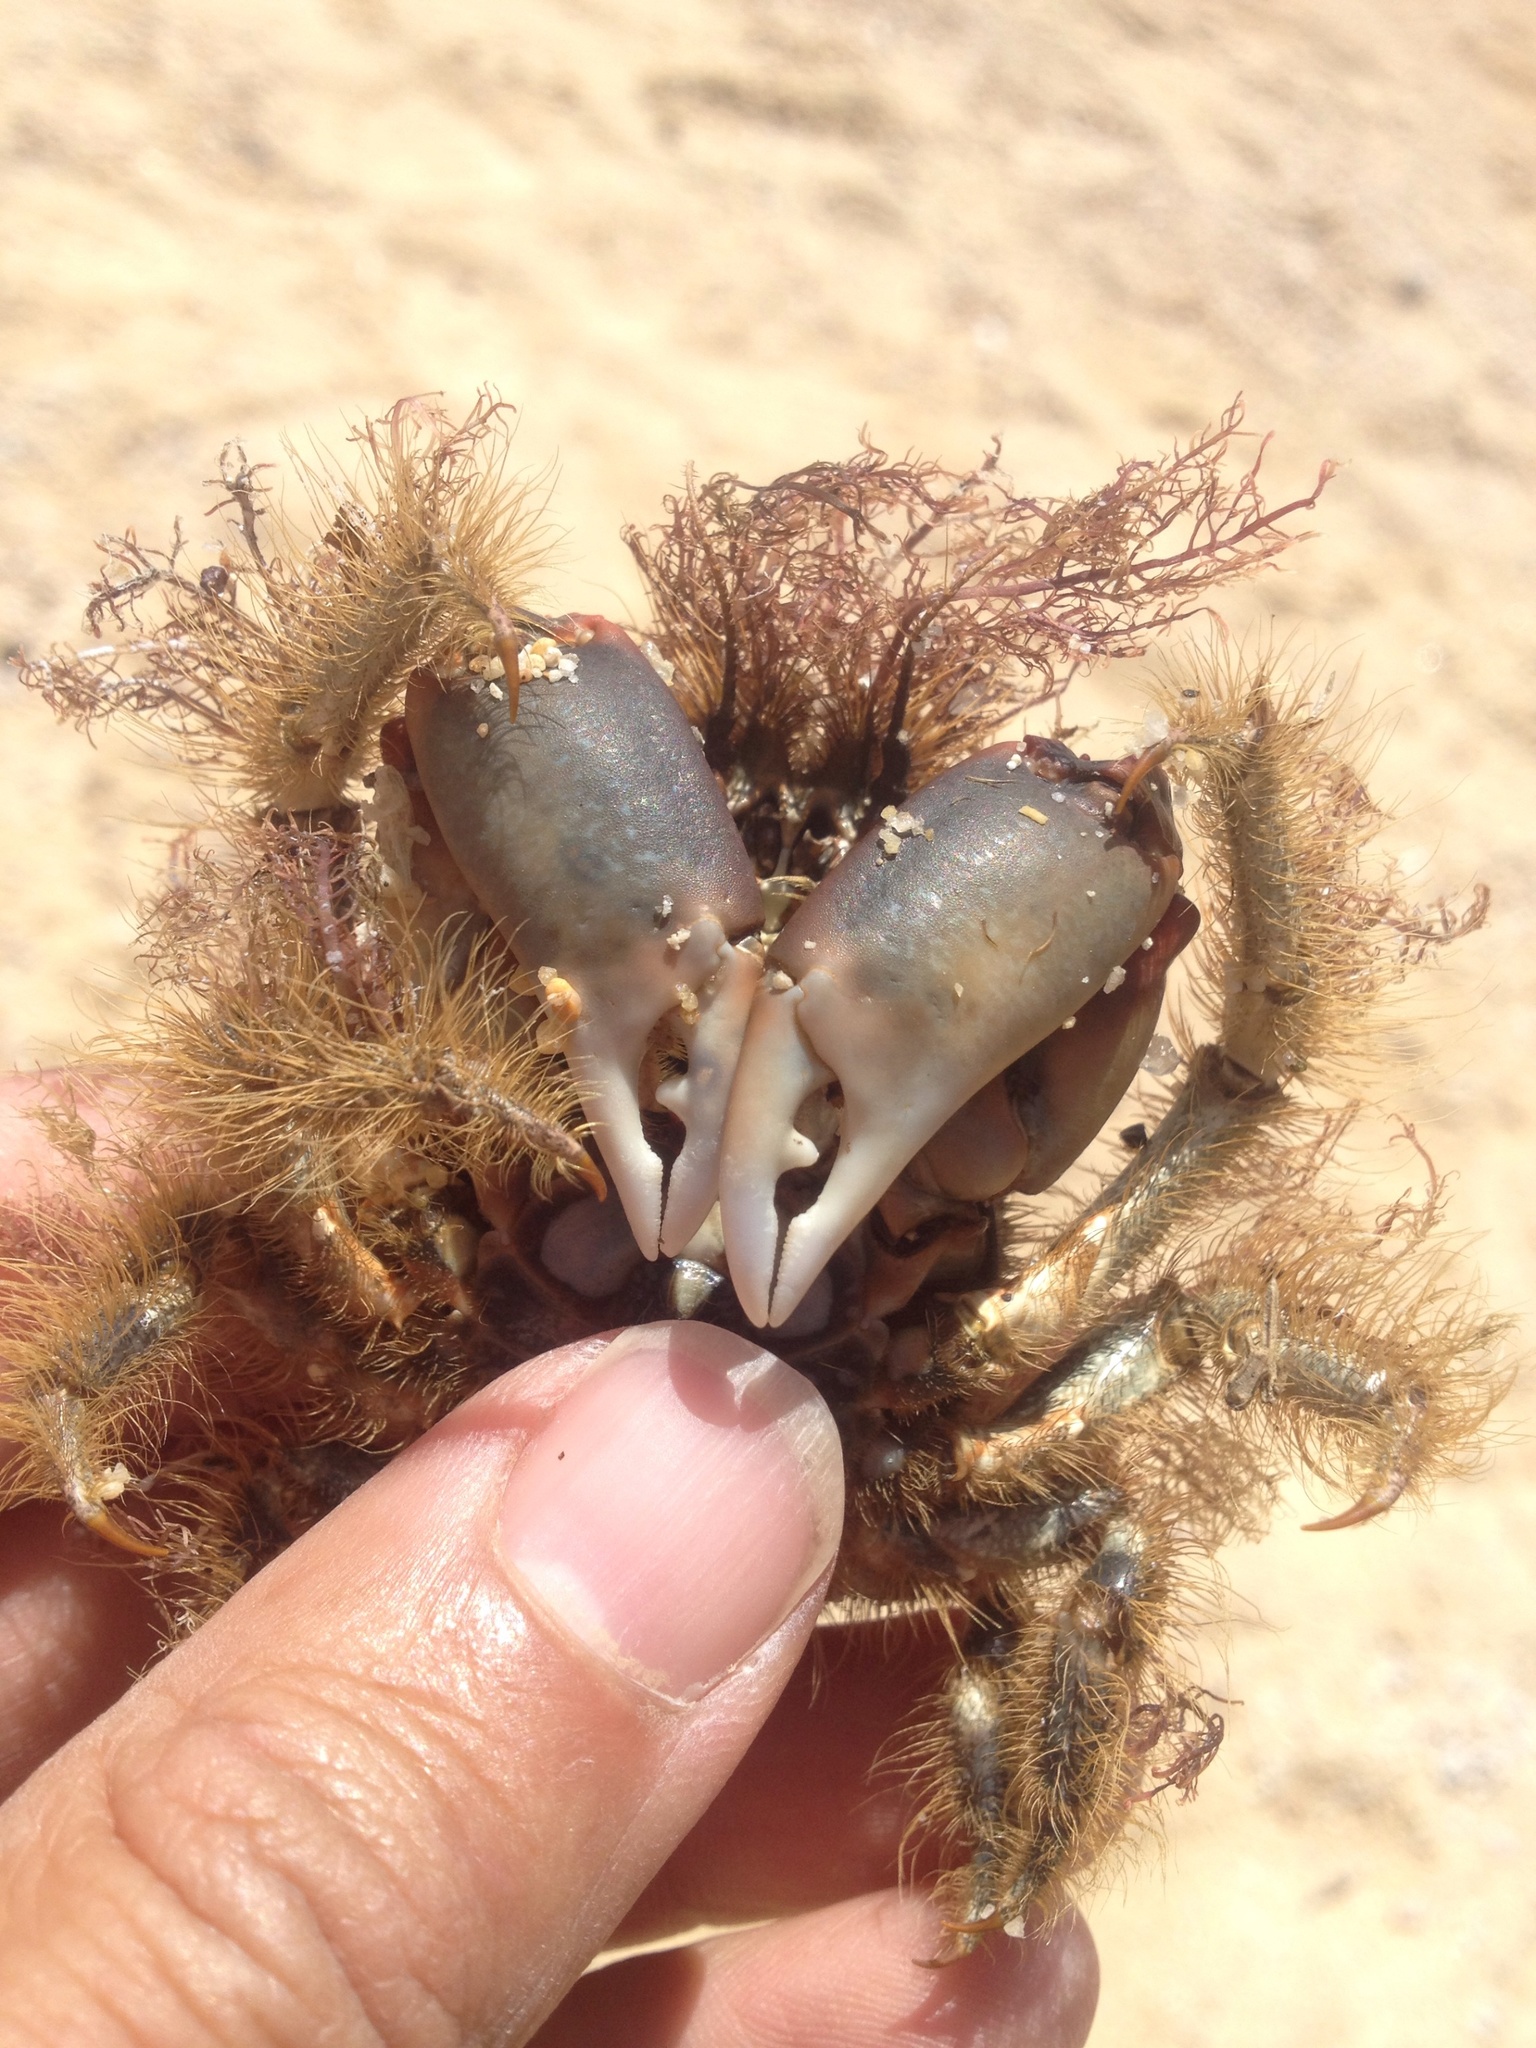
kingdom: Animalia
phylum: Arthropoda
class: Malacostraca
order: Decapoda
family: Majidae
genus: Notomithrax
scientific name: Notomithrax ursus
